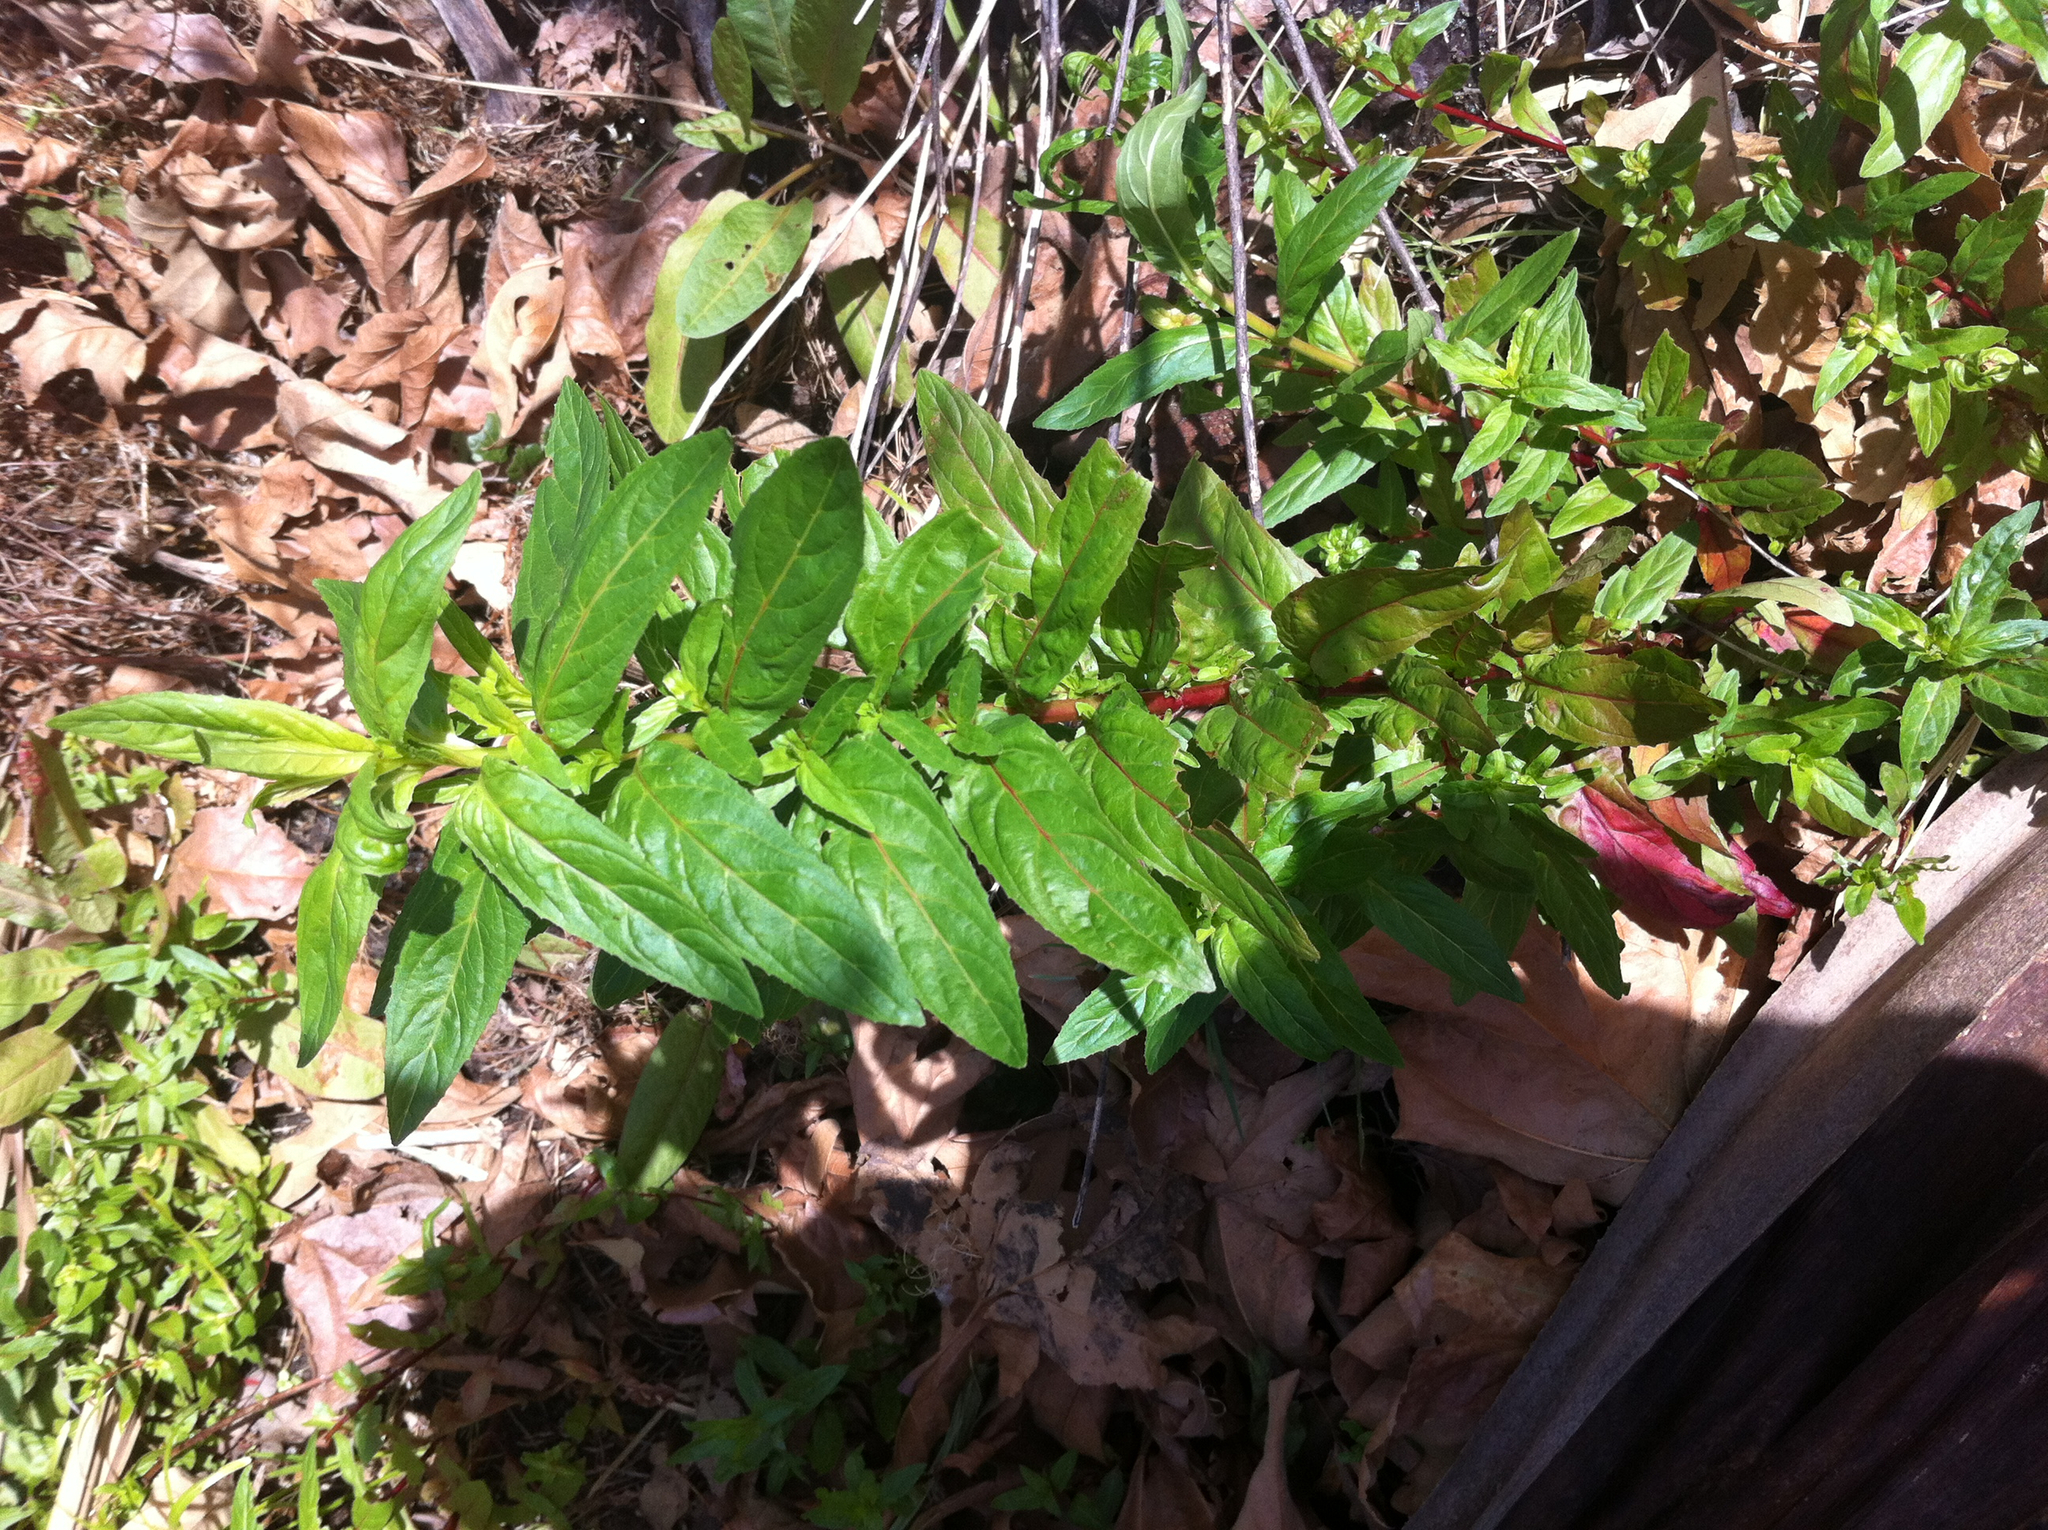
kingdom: Plantae
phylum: Tracheophyta
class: Magnoliopsida
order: Myrtales
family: Onagraceae
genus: Epilobium
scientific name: Epilobium ciliatum
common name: American willowherb
